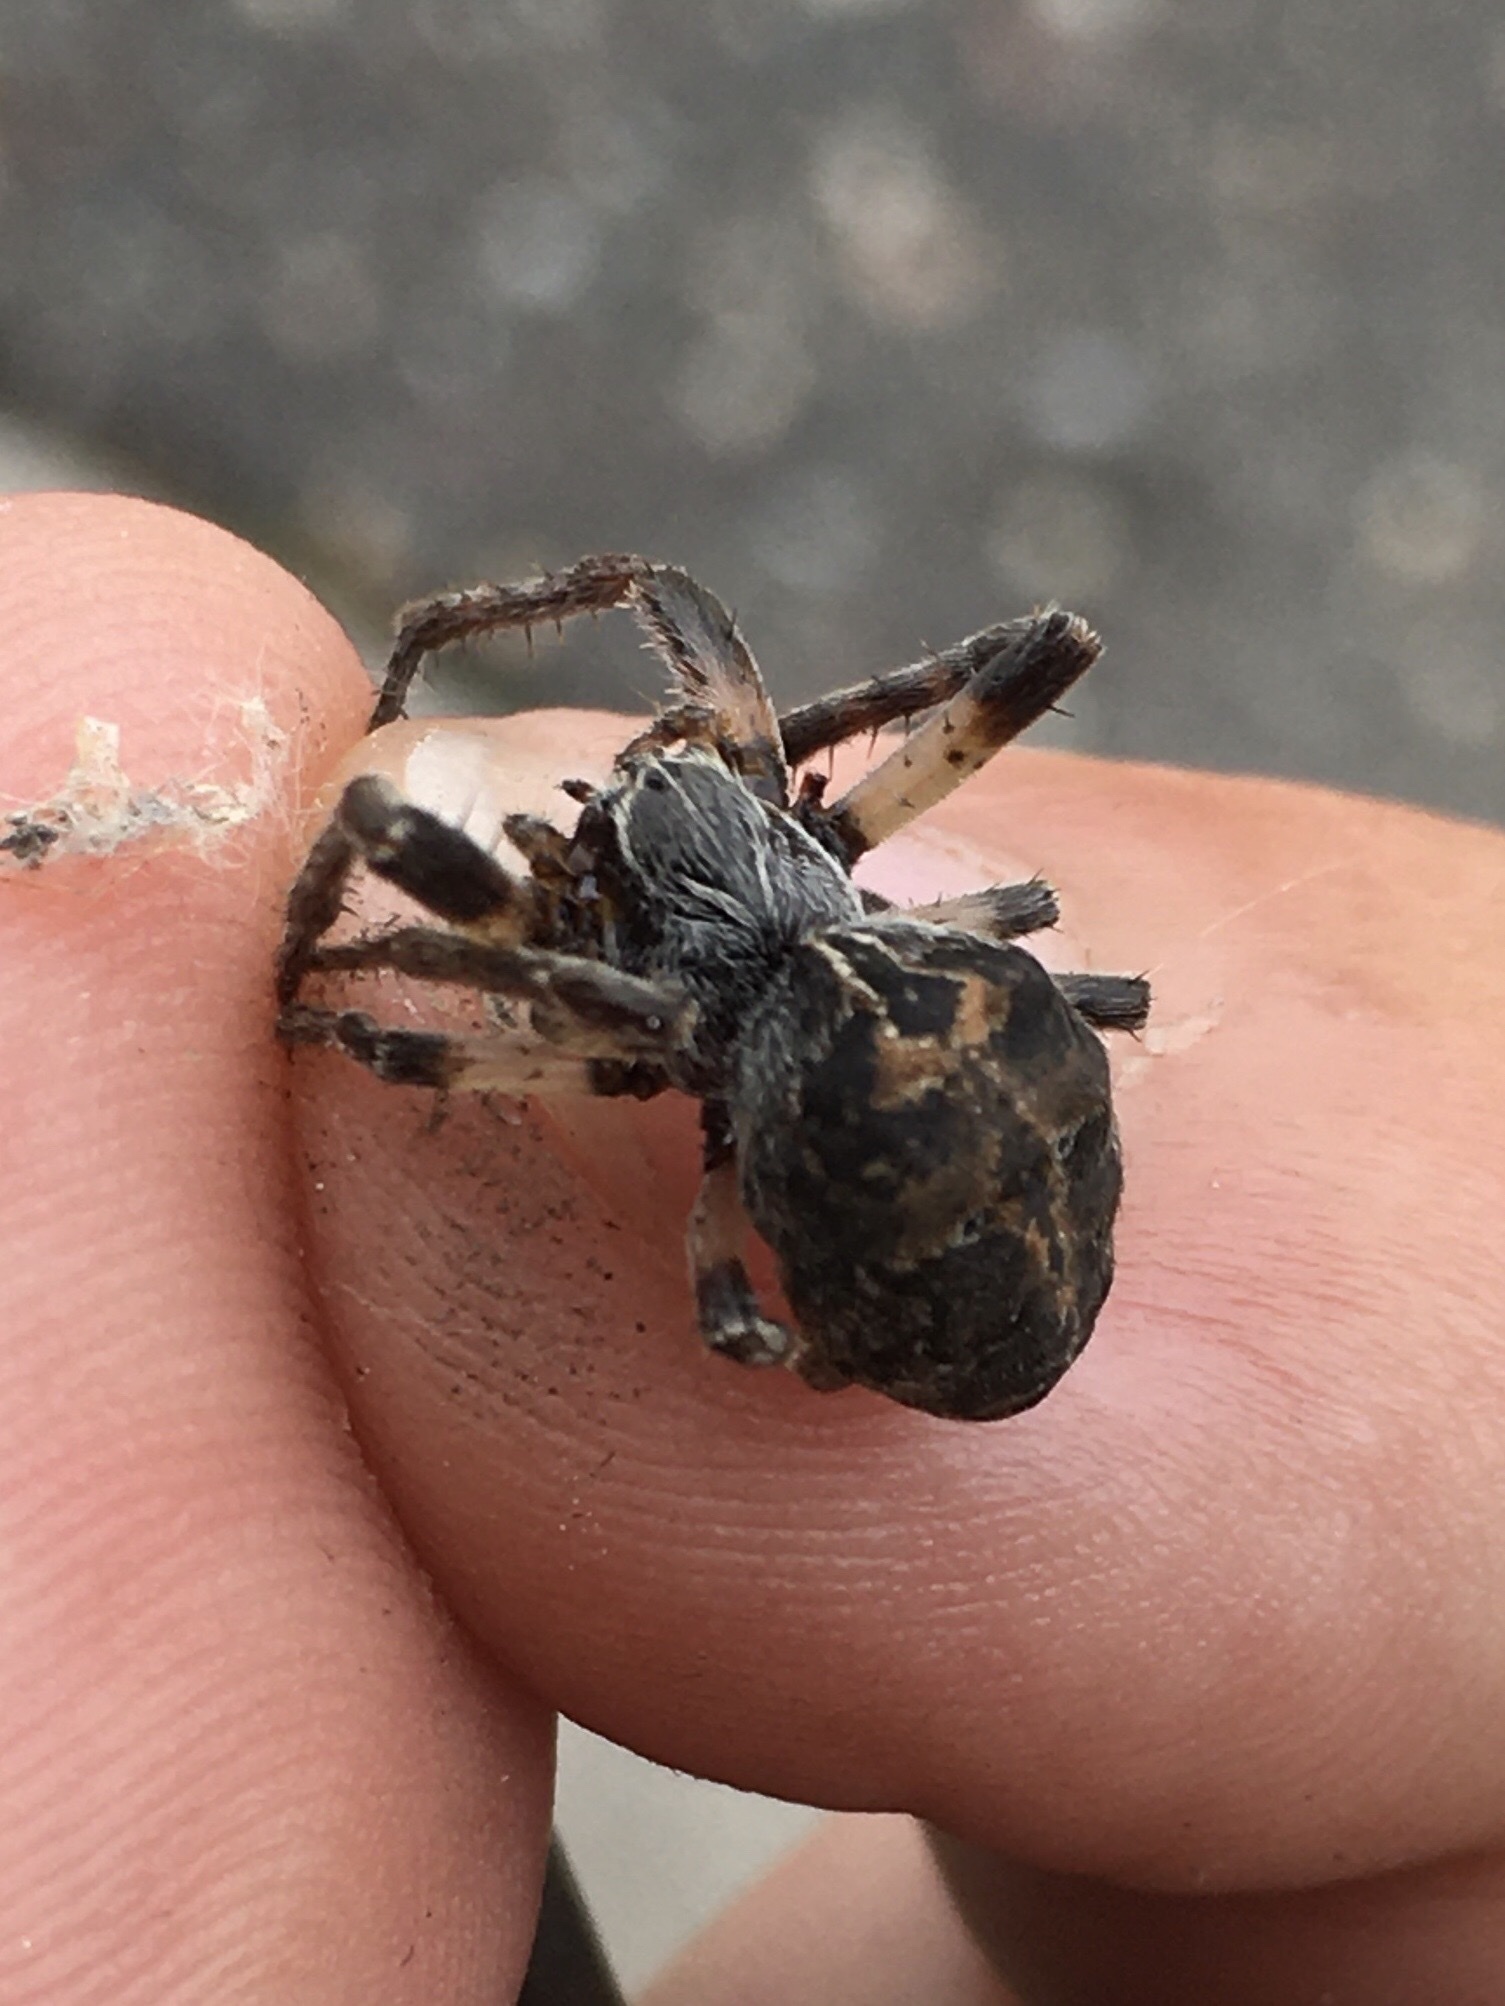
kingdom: Animalia
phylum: Arthropoda
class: Arachnida
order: Araneae
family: Araneidae
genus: Larinioides
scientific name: Larinioides sclopetarius
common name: Bridge orbweaver
